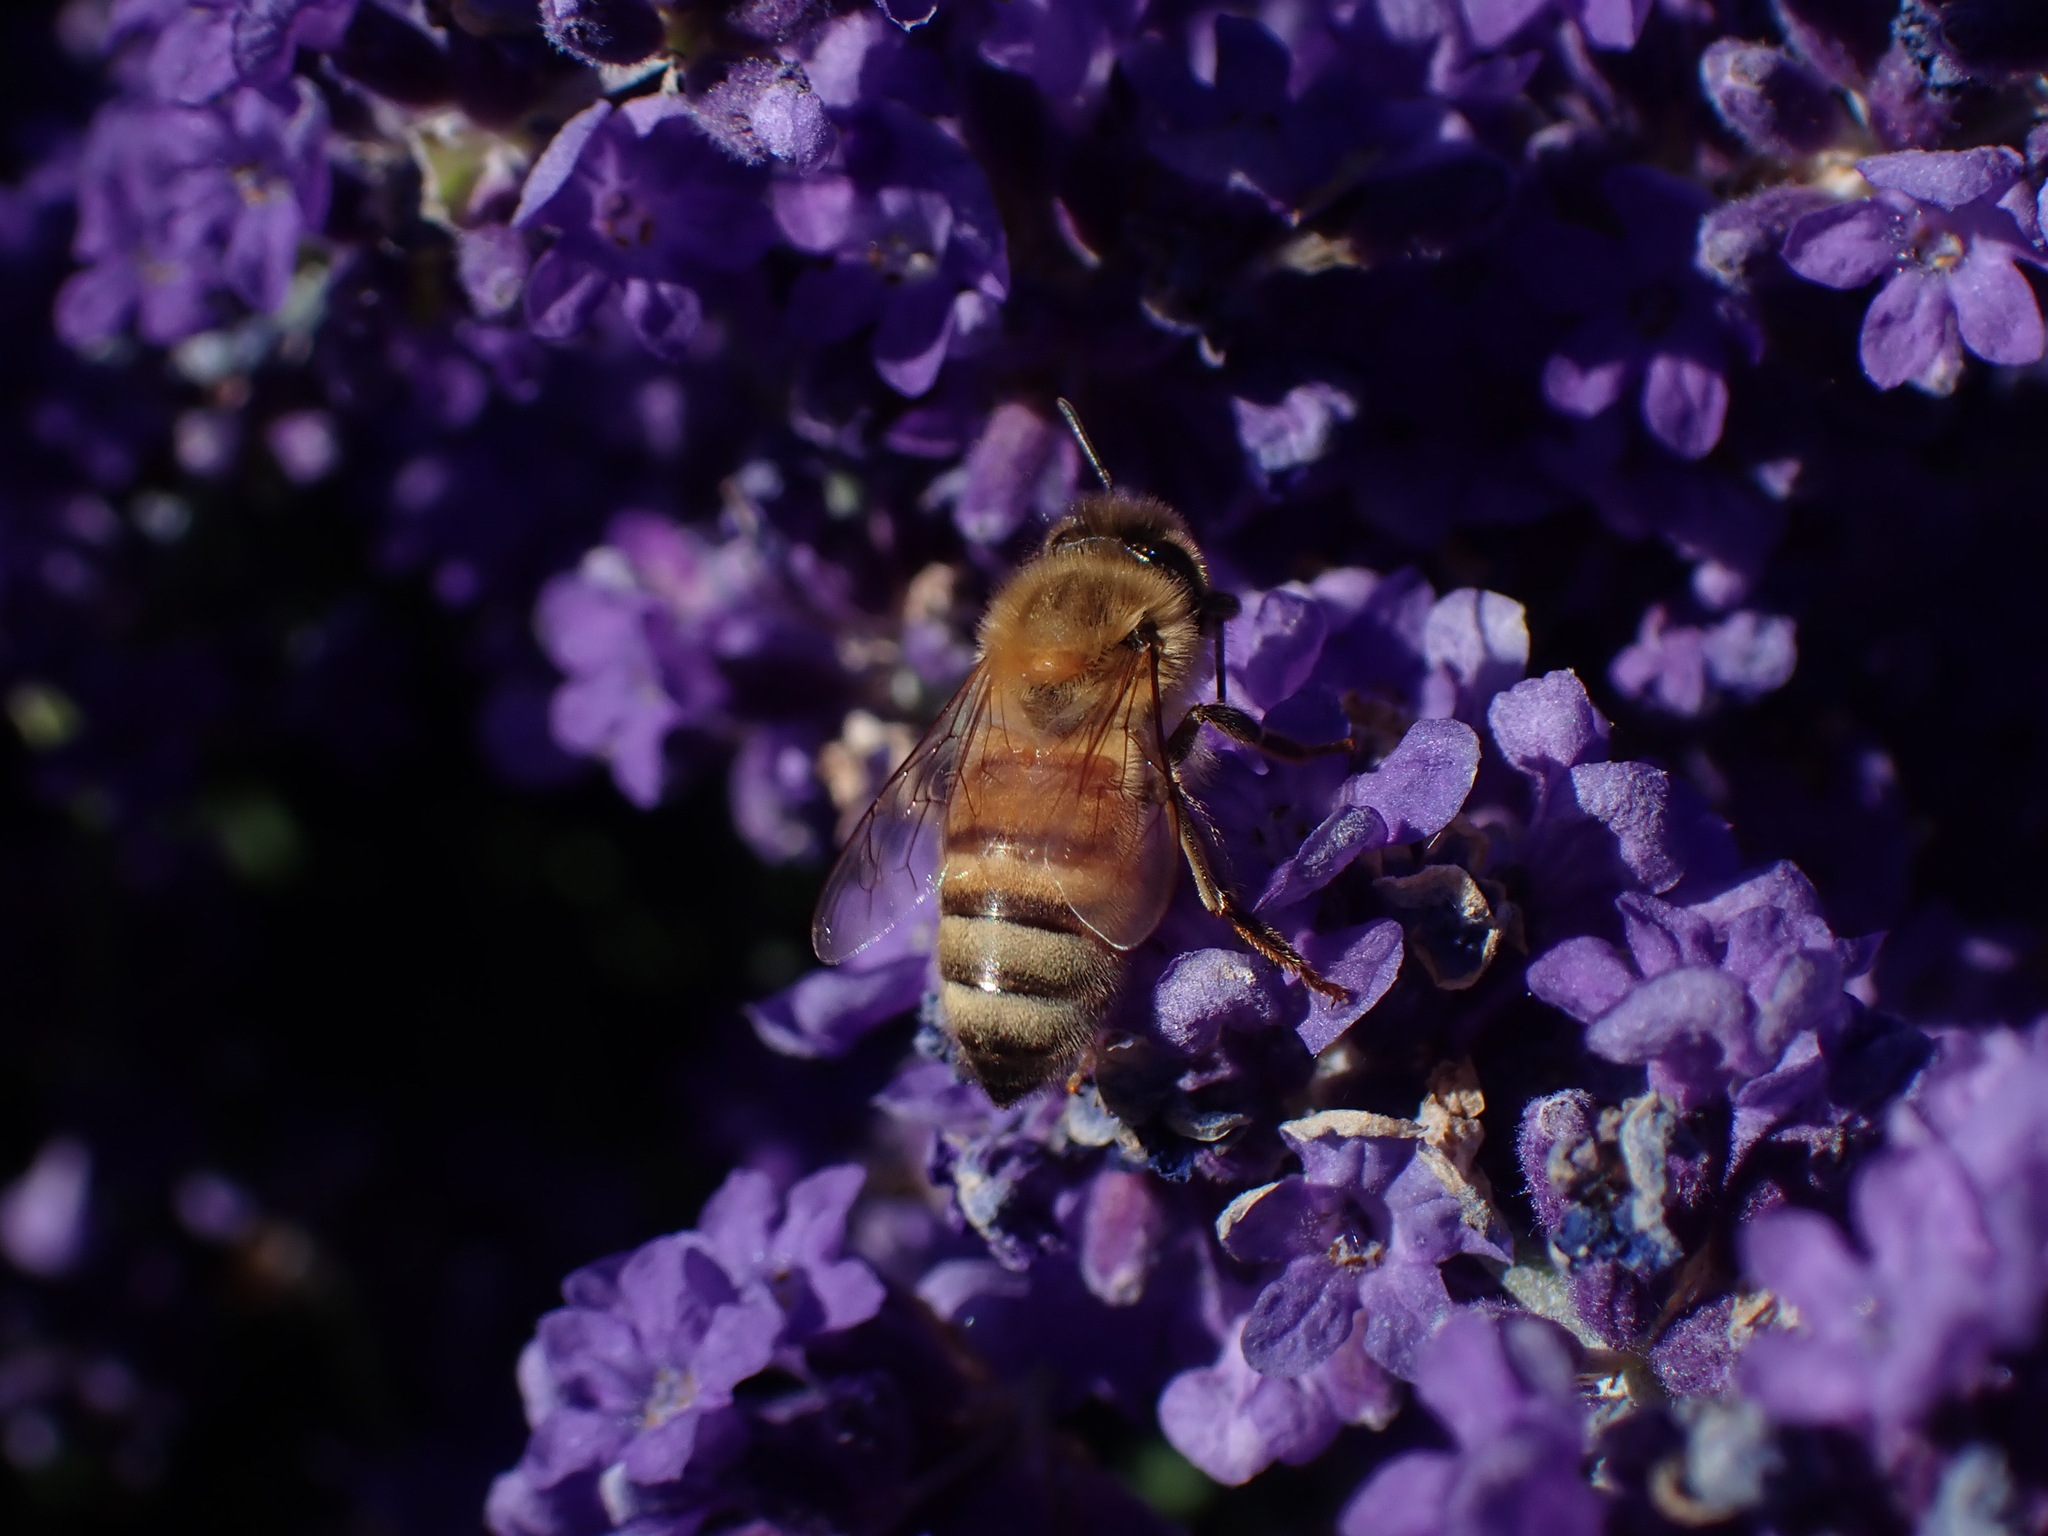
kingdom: Animalia
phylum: Arthropoda
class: Insecta
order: Hymenoptera
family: Apidae
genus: Apis
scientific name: Apis mellifera
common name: Honey bee
